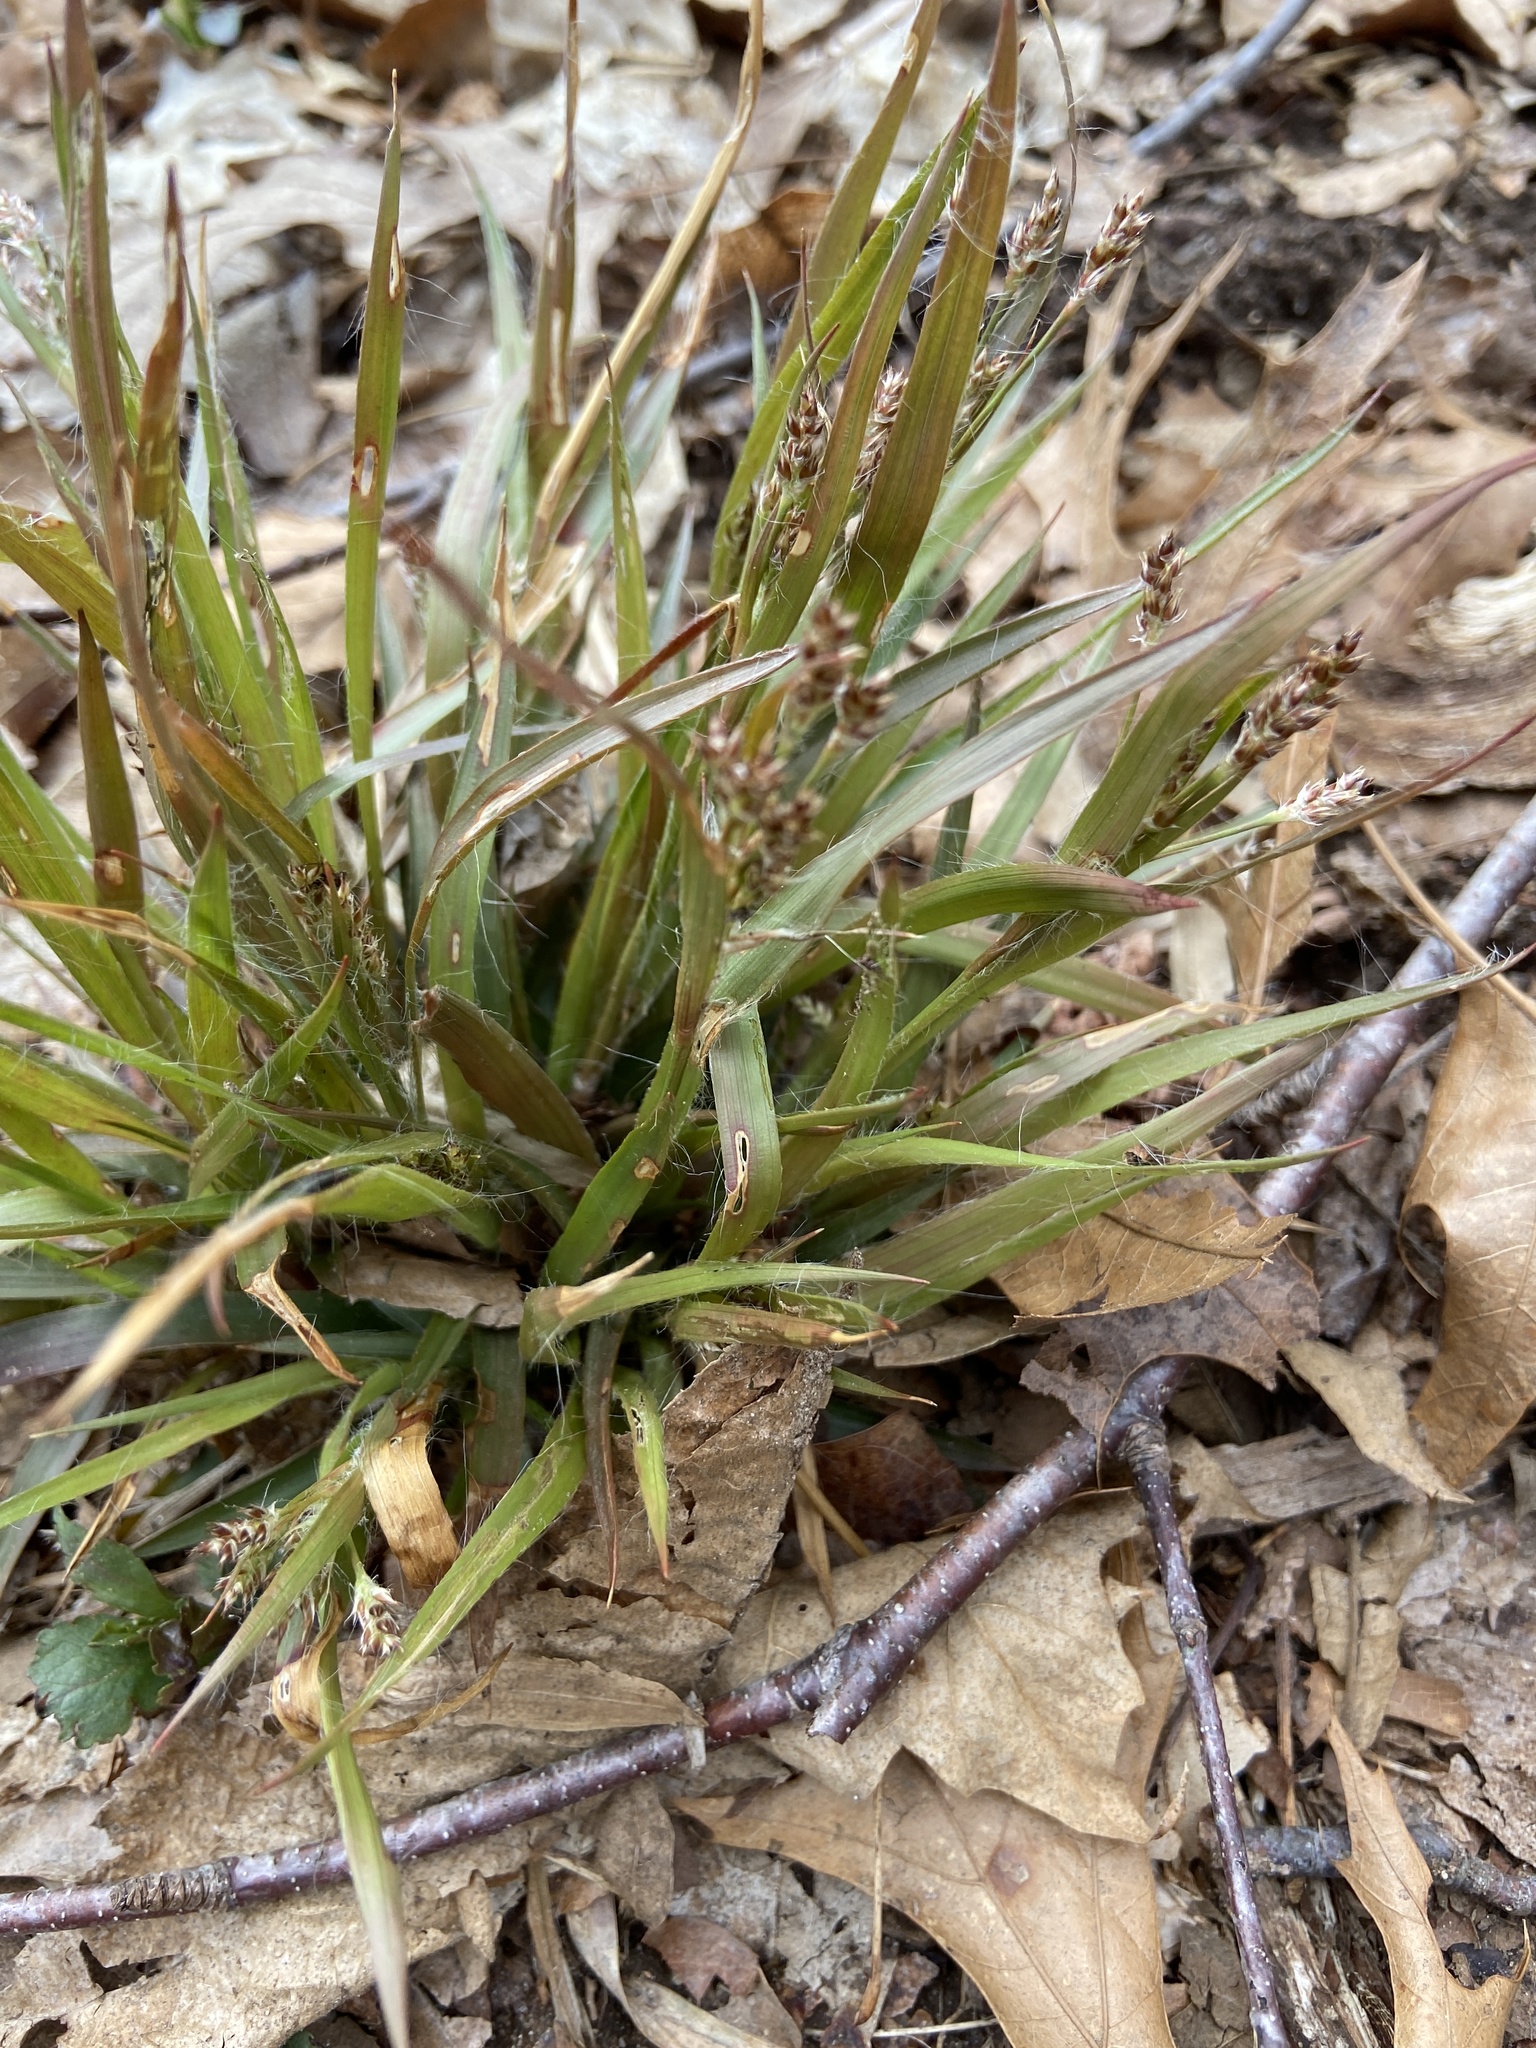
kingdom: Plantae
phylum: Tracheophyta
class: Liliopsida
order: Poales
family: Juncaceae
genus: Luzula
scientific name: Luzula multiflora
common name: Heath wood-rush
